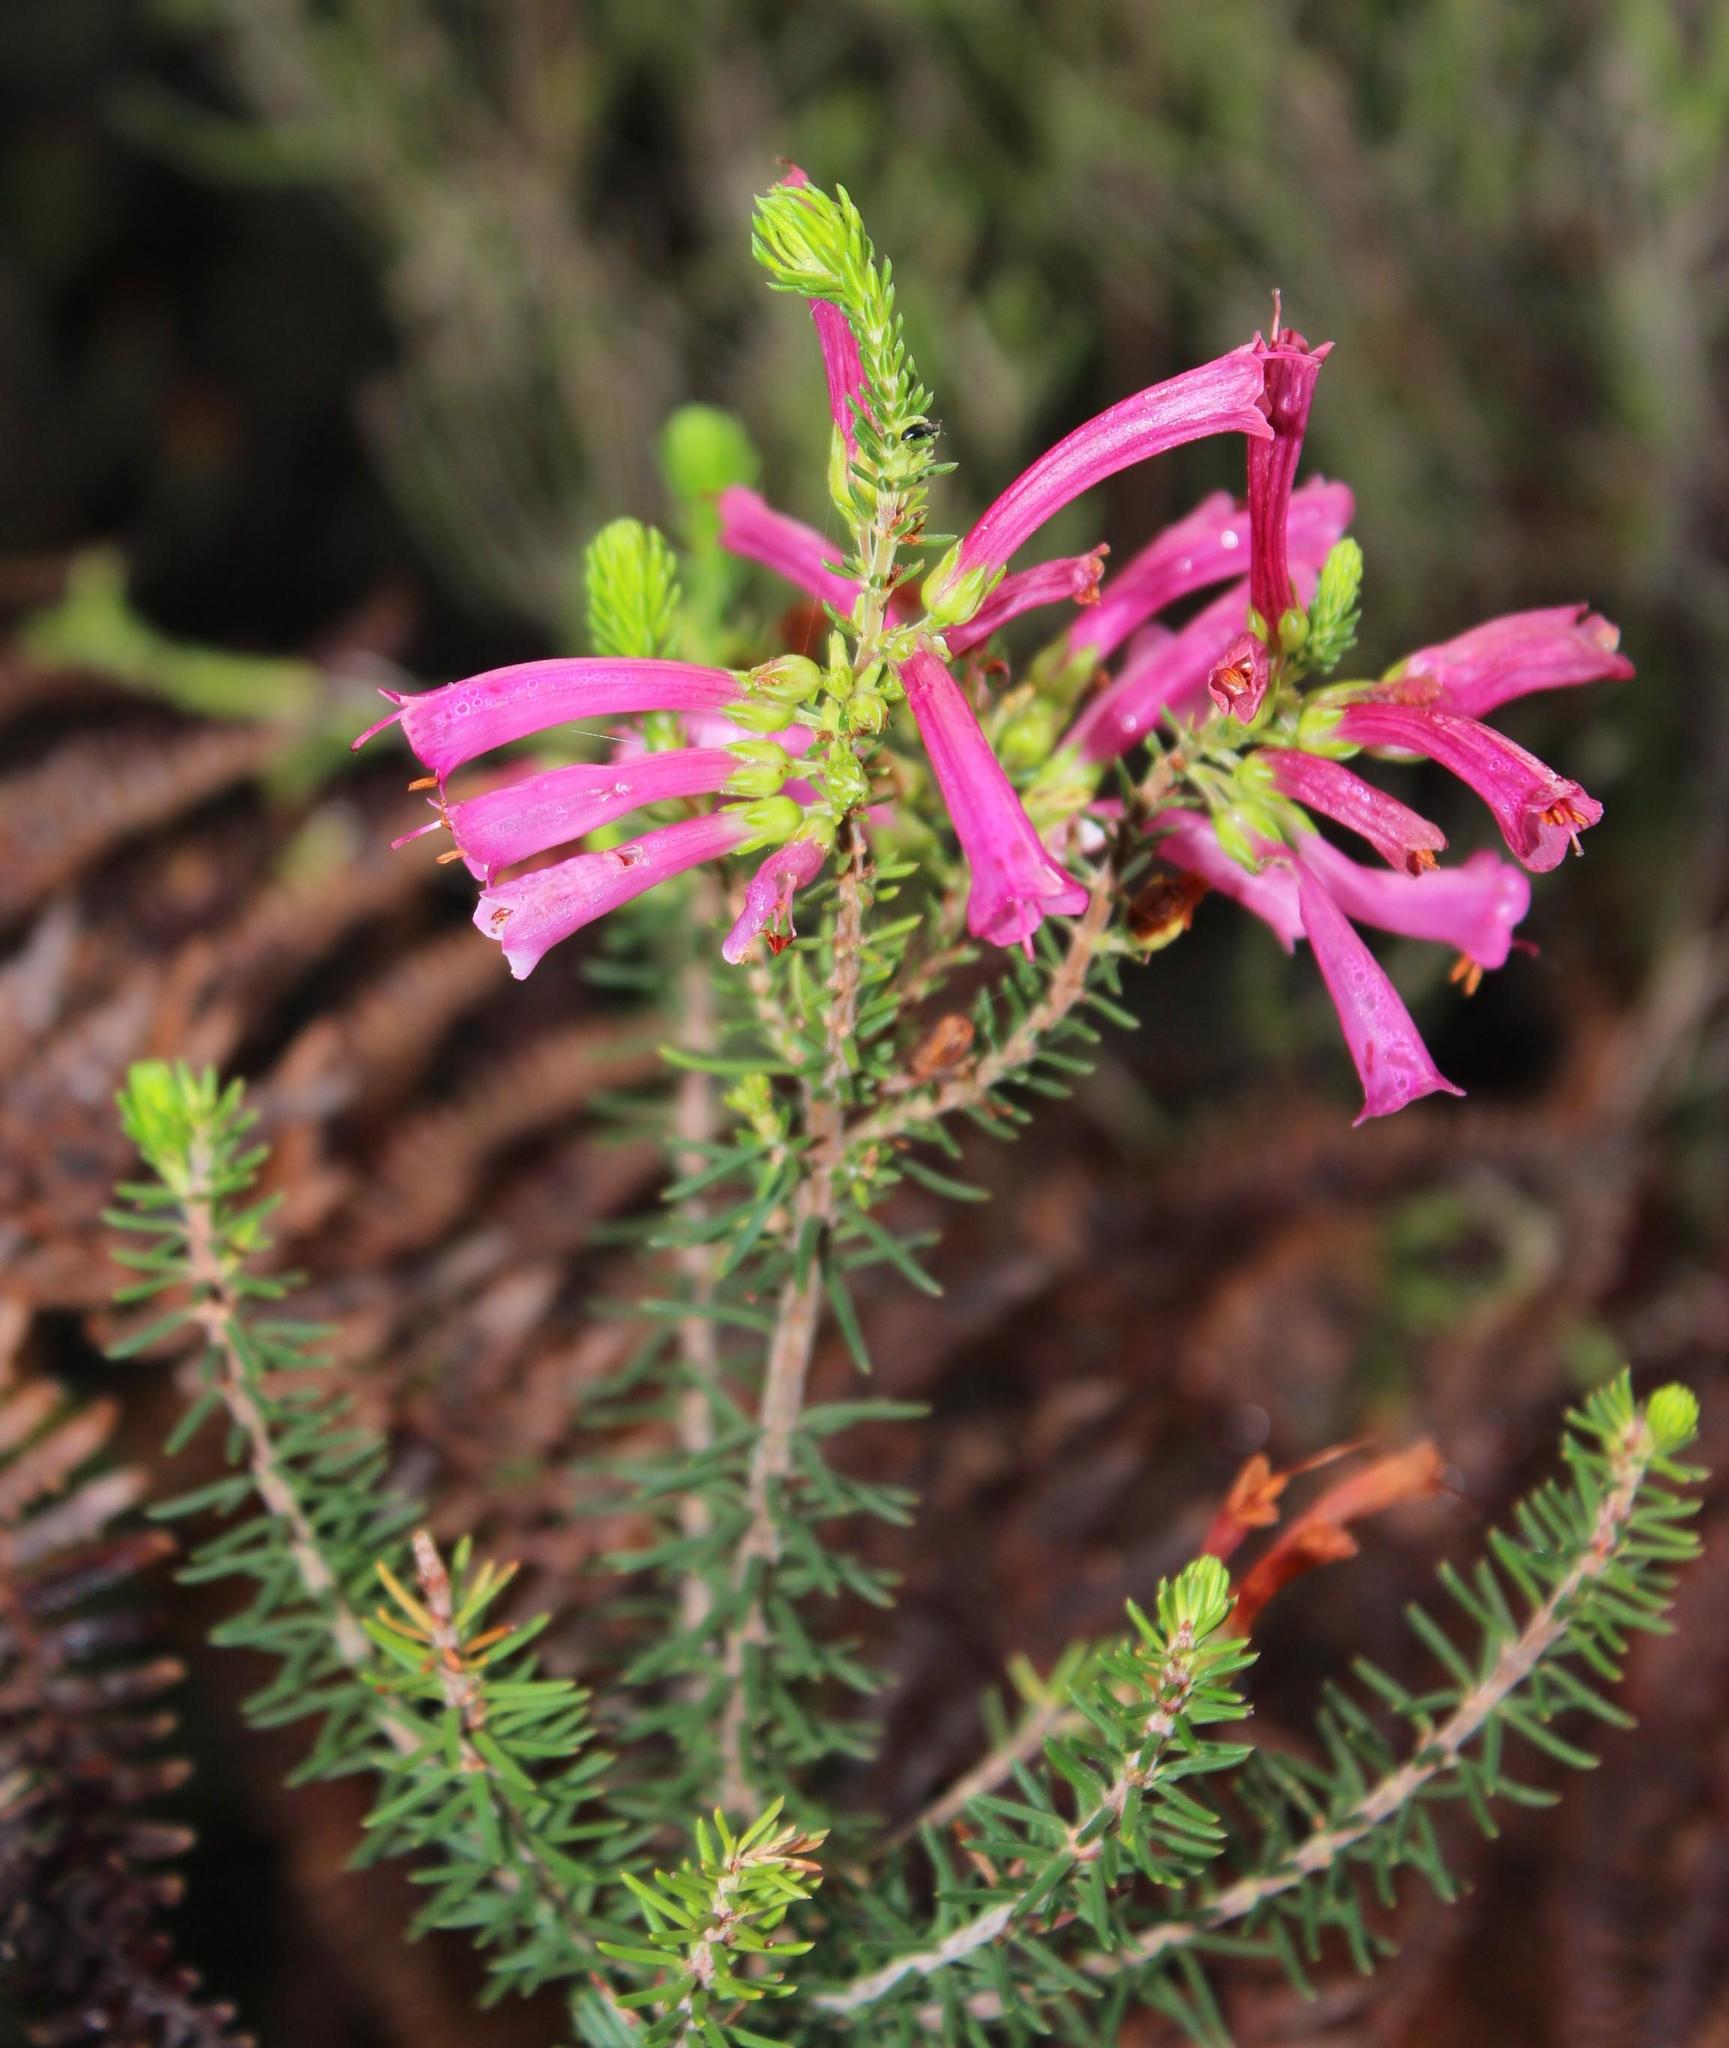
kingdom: Plantae
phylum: Tracheophyta
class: Magnoliopsida
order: Ericales
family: Ericaceae
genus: Erica
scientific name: Erica abietina
